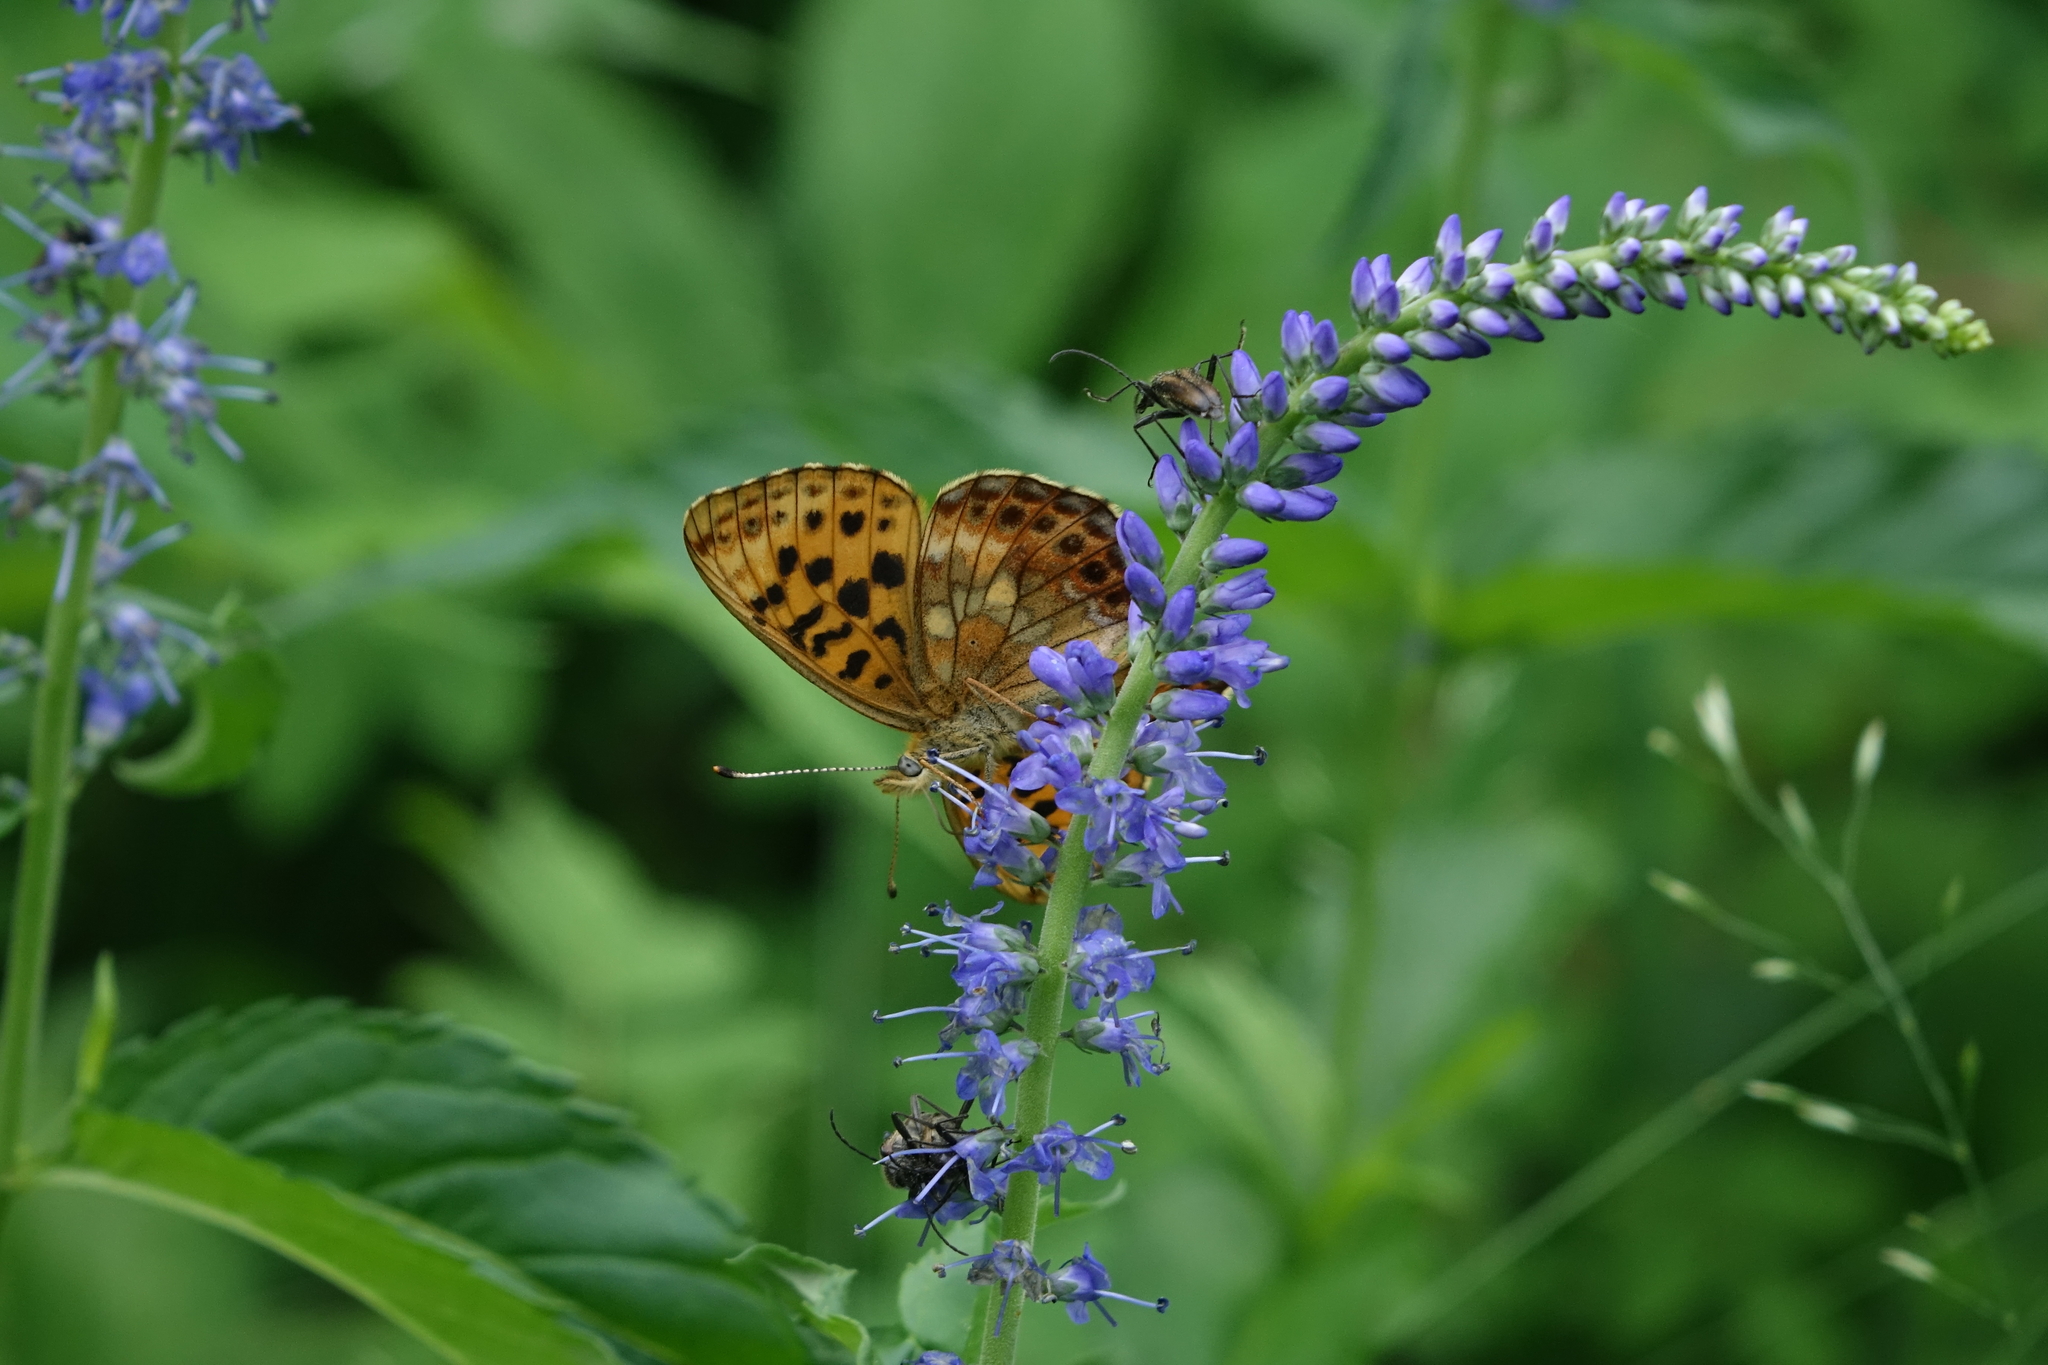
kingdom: Plantae
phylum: Tracheophyta
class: Magnoliopsida
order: Lamiales
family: Plantaginaceae
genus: Veronica
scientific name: Veronica longifolia
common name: Garden speedwell
